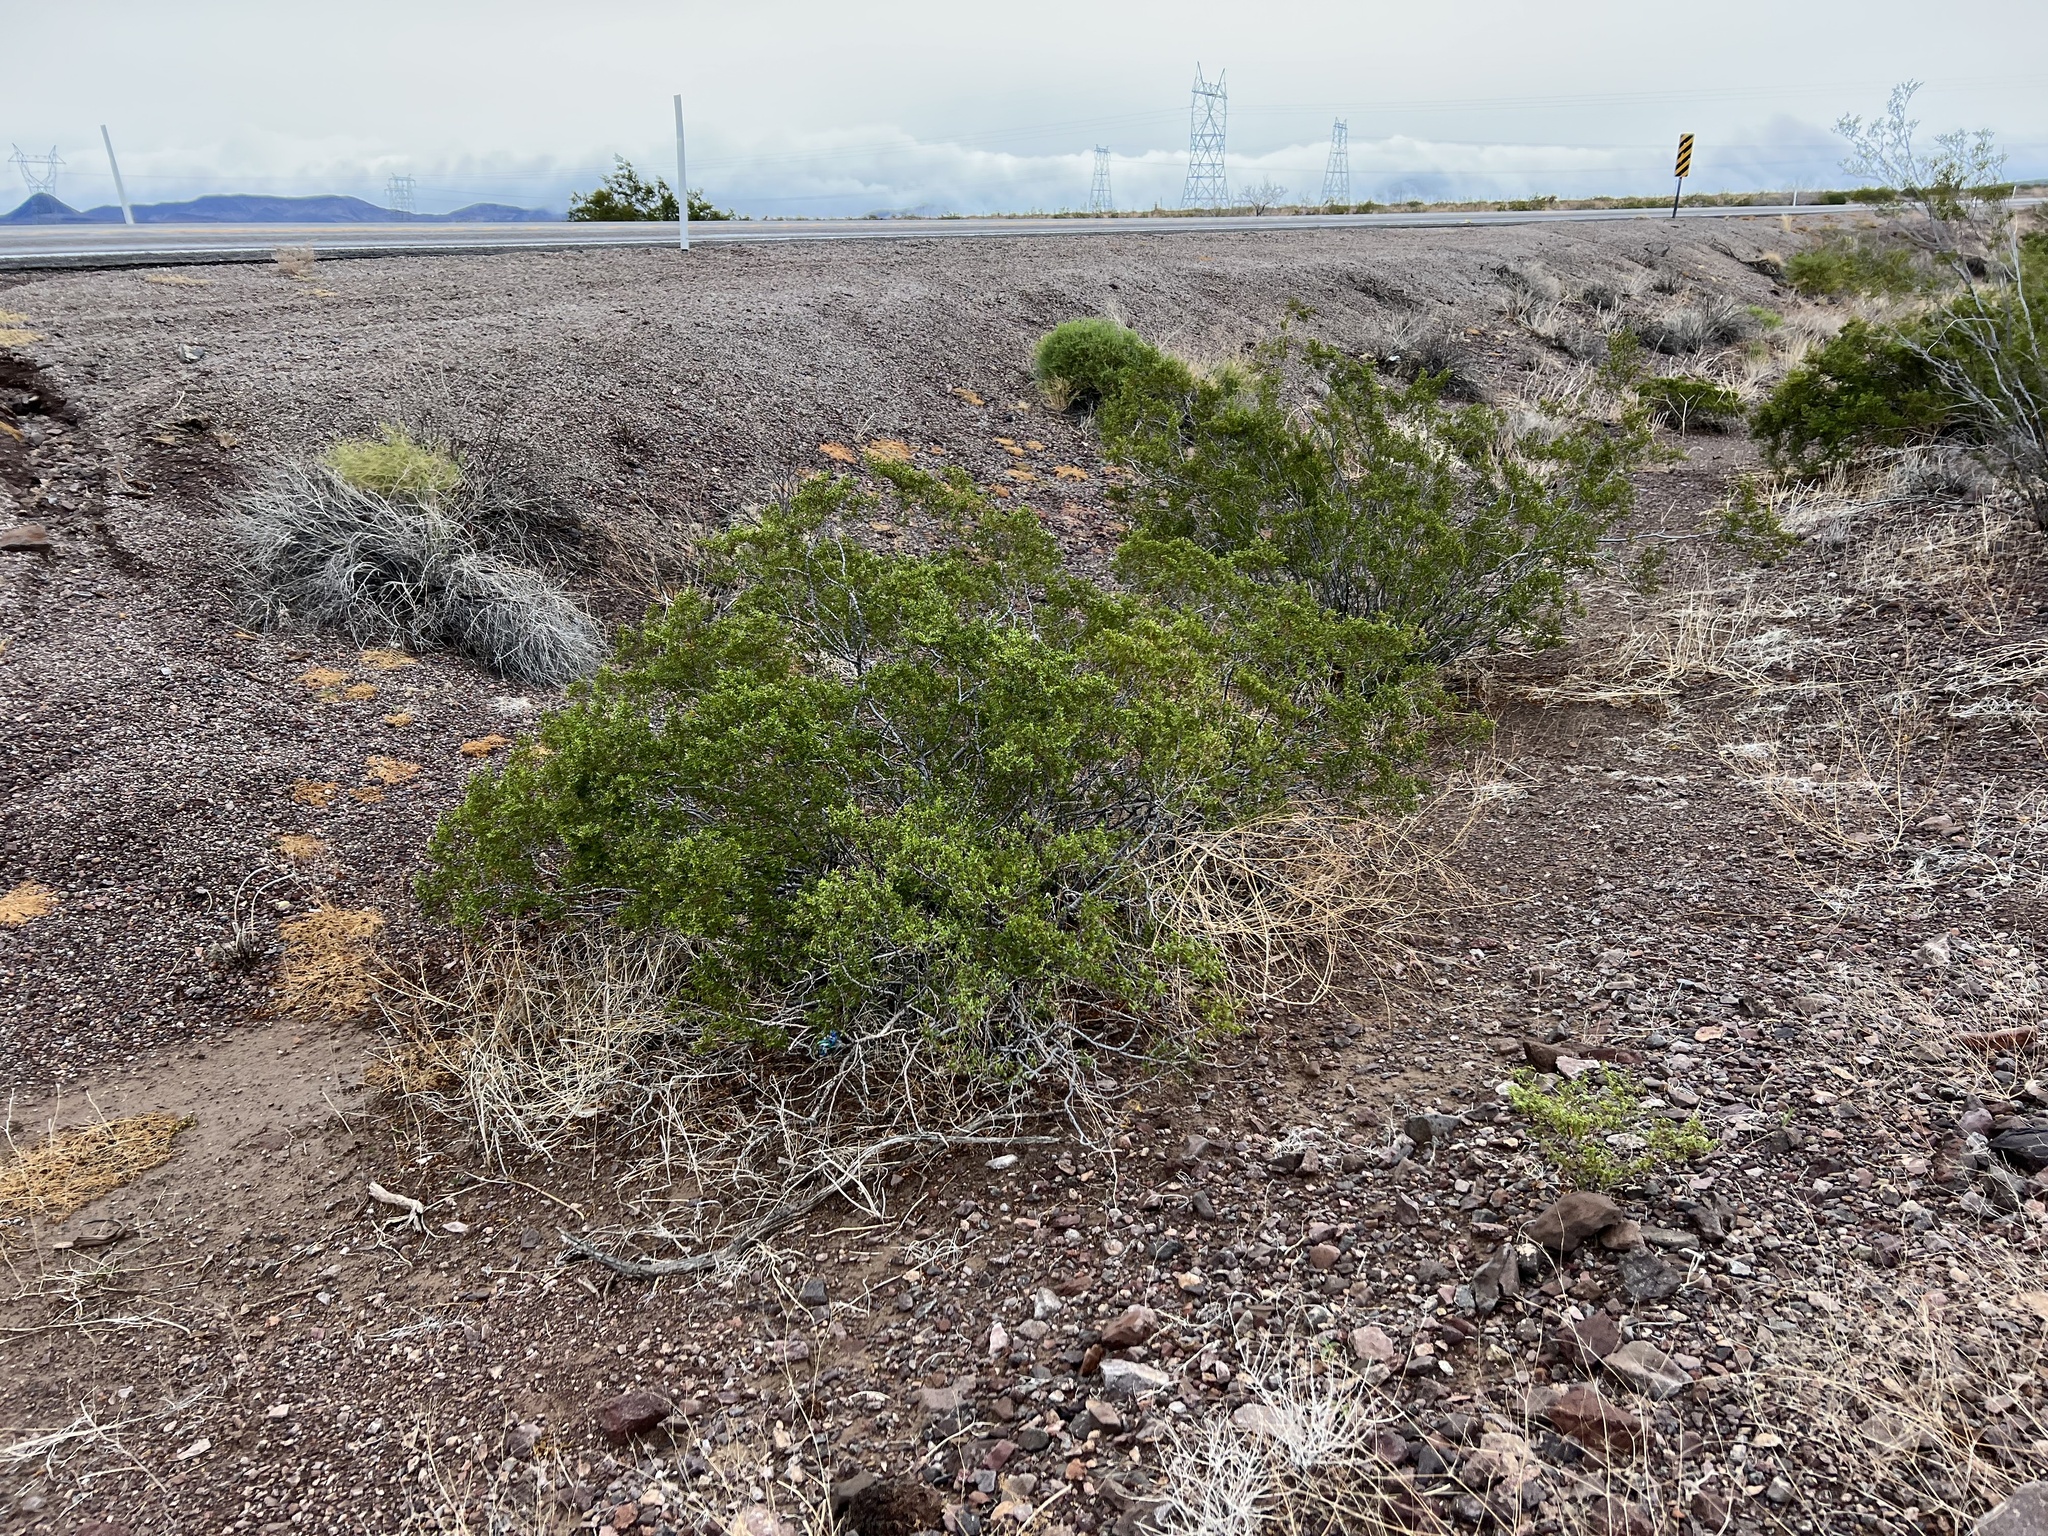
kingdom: Plantae
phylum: Tracheophyta
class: Magnoliopsida
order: Zygophyllales
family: Zygophyllaceae
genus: Larrea
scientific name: Larrea tridentata
